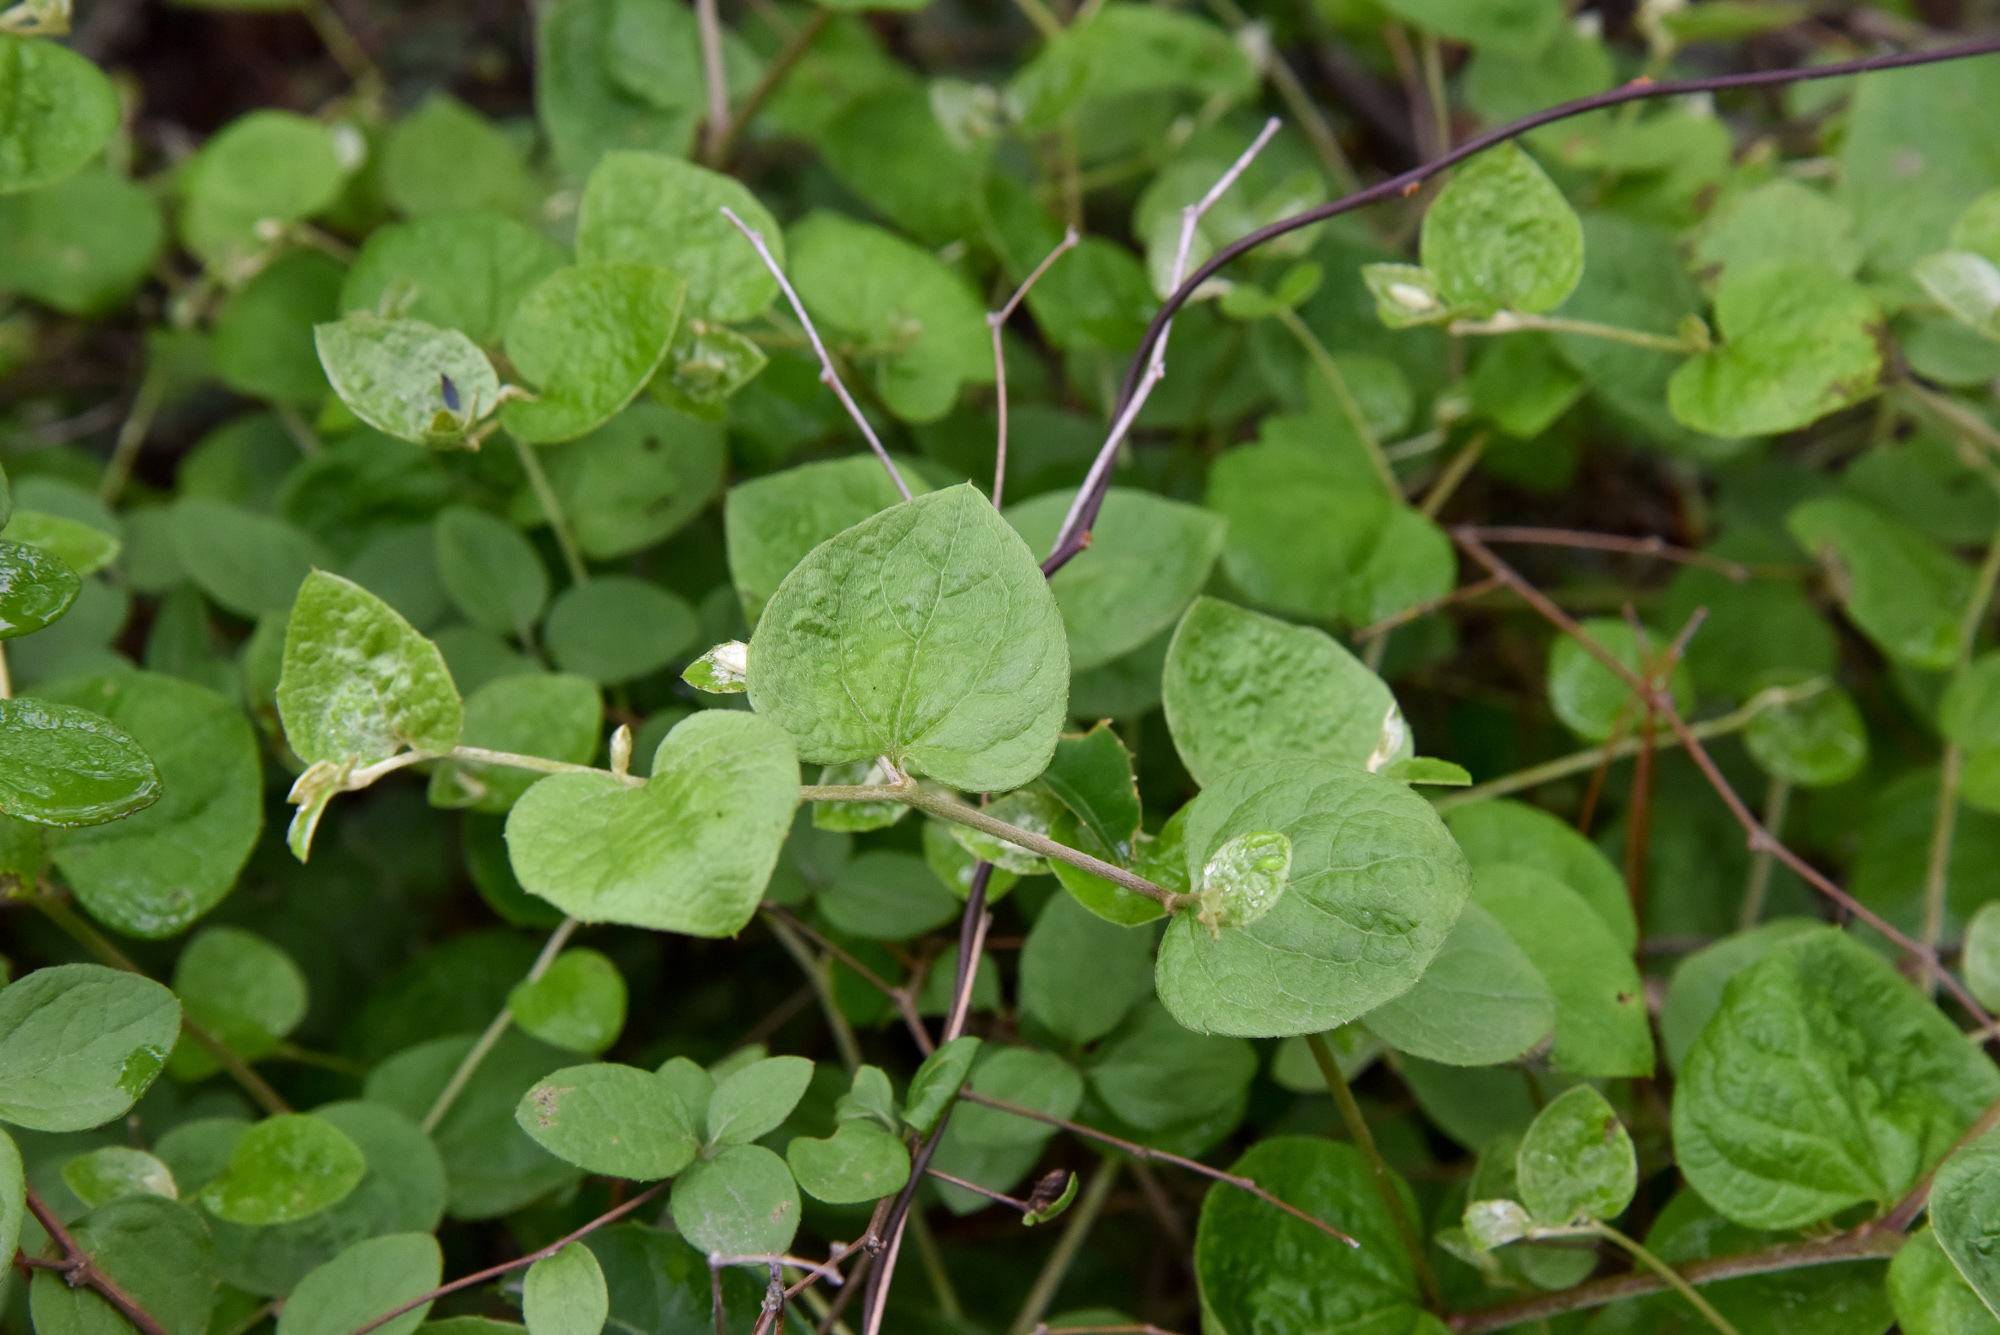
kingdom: Plantae
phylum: Tracheophyta
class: Magnoliopsida
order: Asterales
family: Asteraceae
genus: Pertya
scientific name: Pertya pubescens
